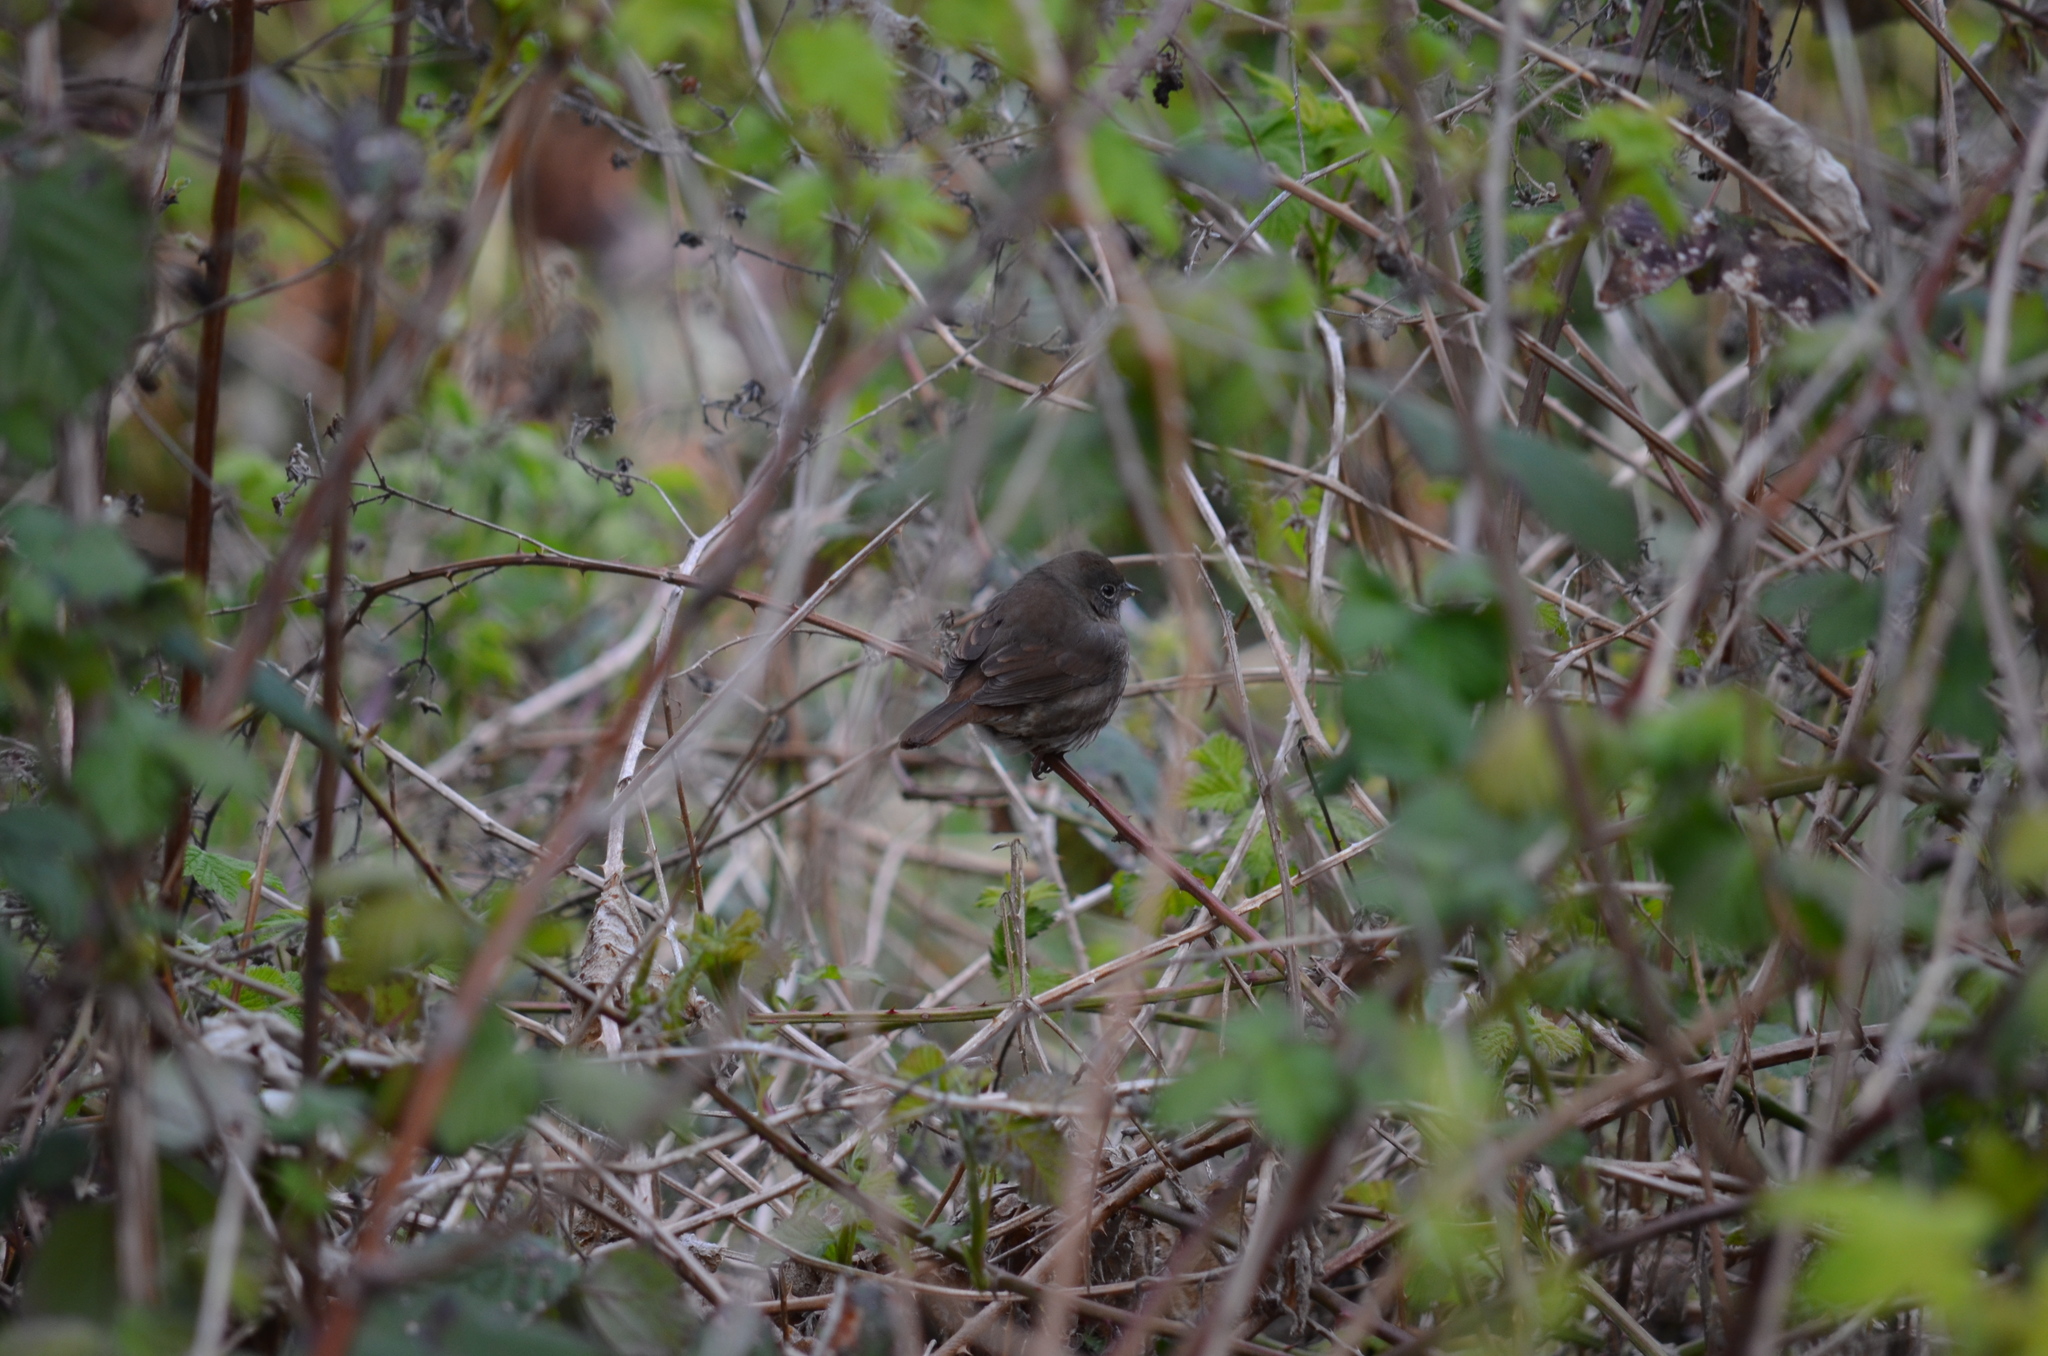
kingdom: Animalia
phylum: Chordata
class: Aves
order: Passeriformes
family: Passerellidae
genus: Passerella
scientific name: Passerella iliaca
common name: Fox sparrow
